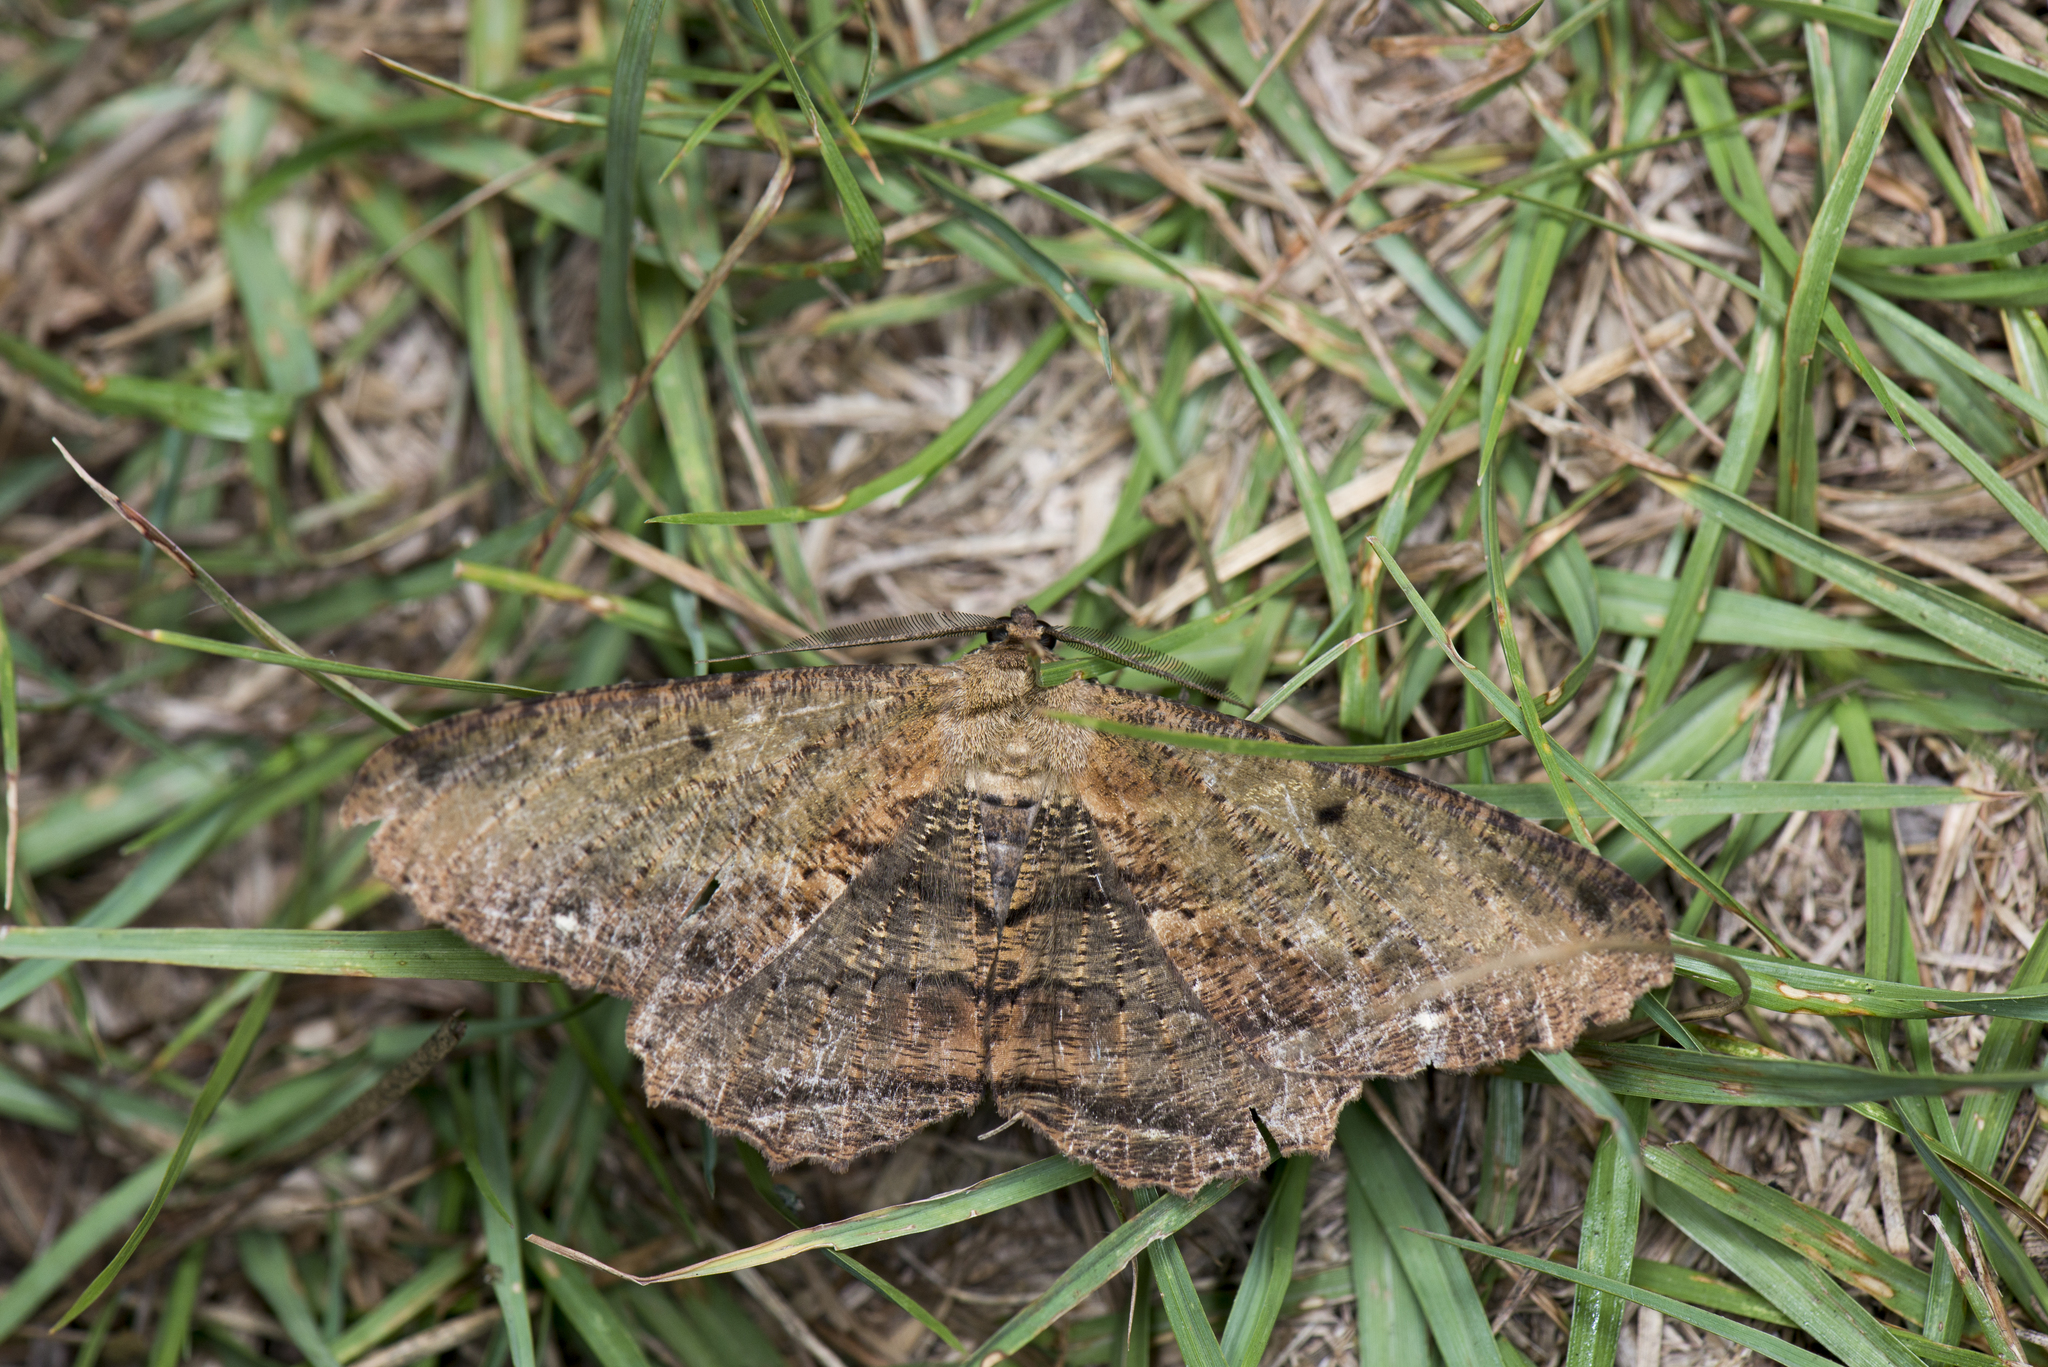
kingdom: Animalia
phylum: Arthropoda
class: Insecta
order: Lepidoptera
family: Geometridae
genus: Chorodna
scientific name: Chorodna creataria
